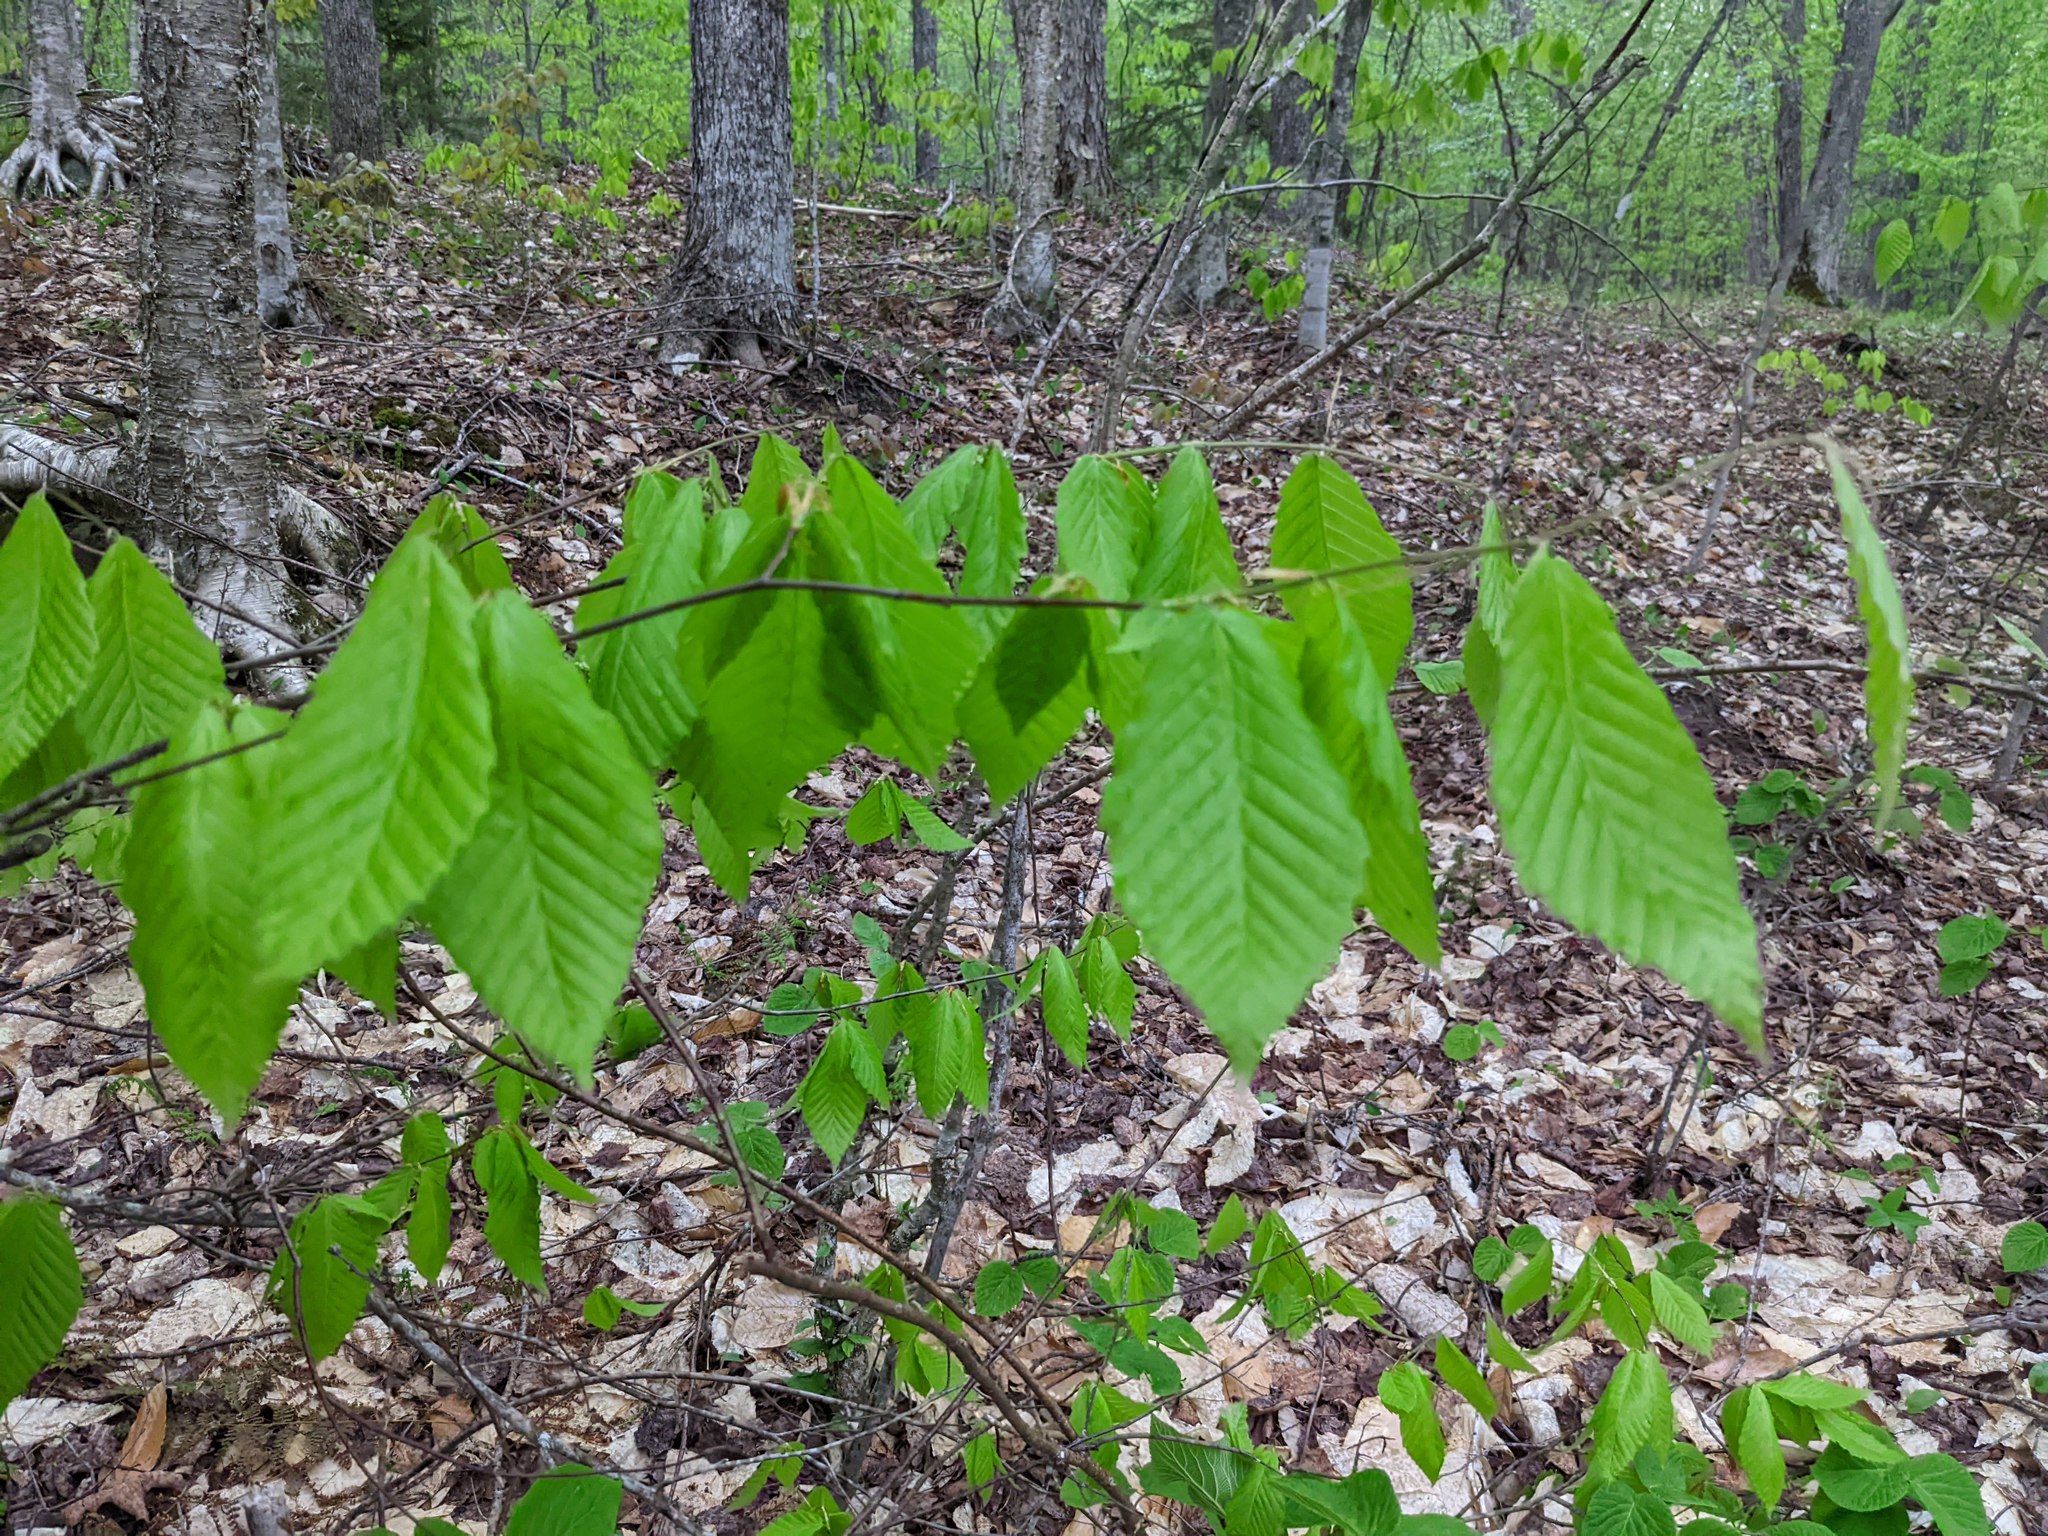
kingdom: Plantae
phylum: Tracheophyta
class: Magnoliopsida
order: Fagales
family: Fagaceae
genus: Fagus
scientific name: Fagus grandifolia
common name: American beech
